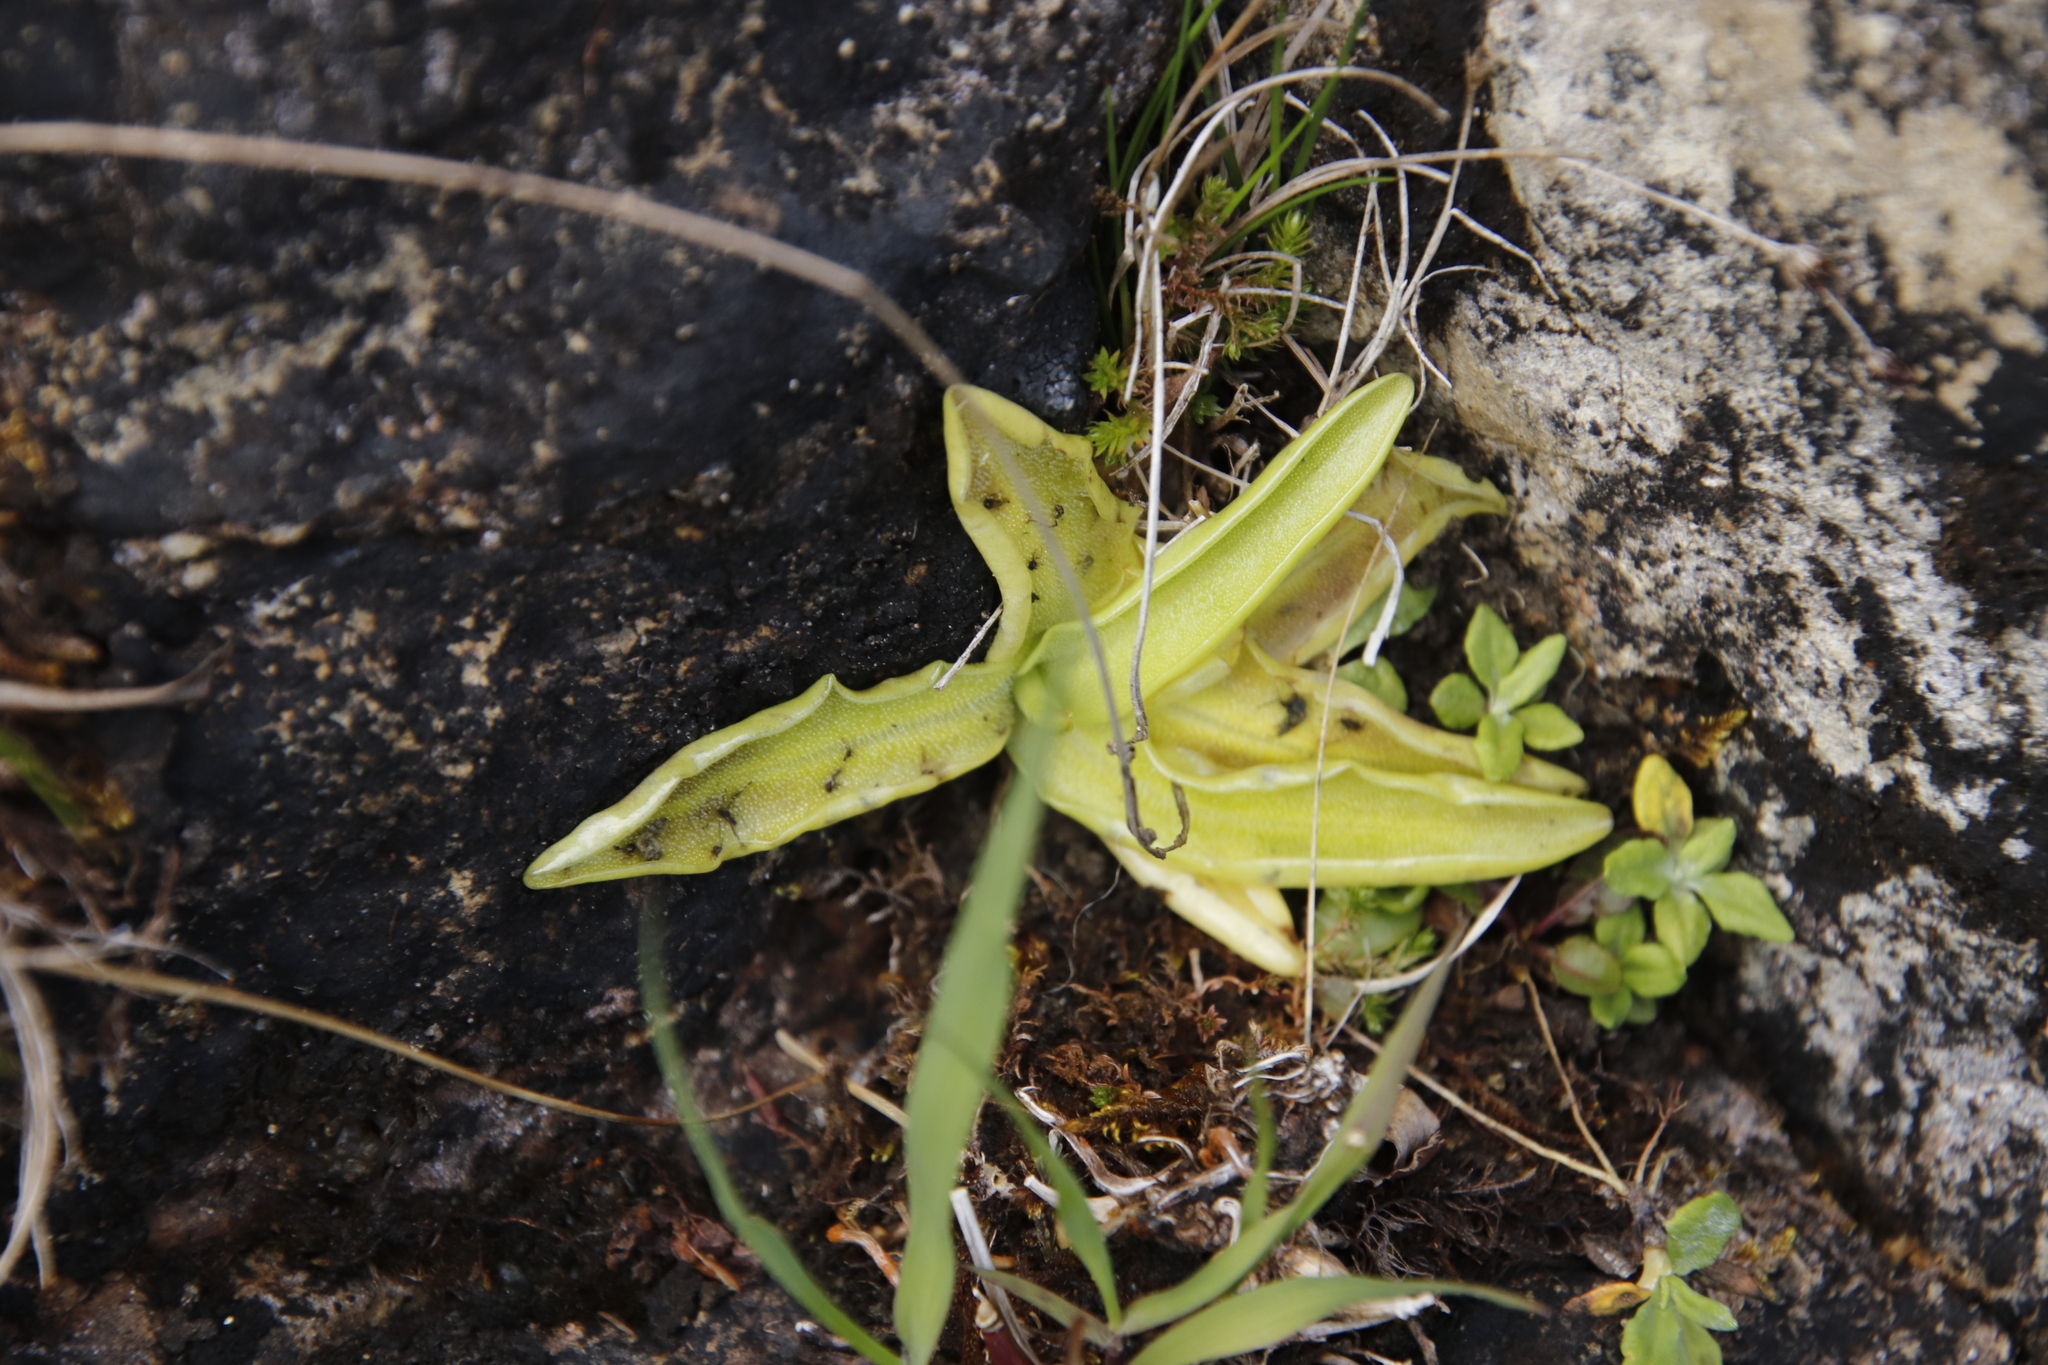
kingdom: Plantae
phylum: Tracheophyta
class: Magnoliopsida
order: Lamiales
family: Lentibulariaceae
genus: Pinguicula
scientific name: Pinguicula vulgaris
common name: Common butterwort
